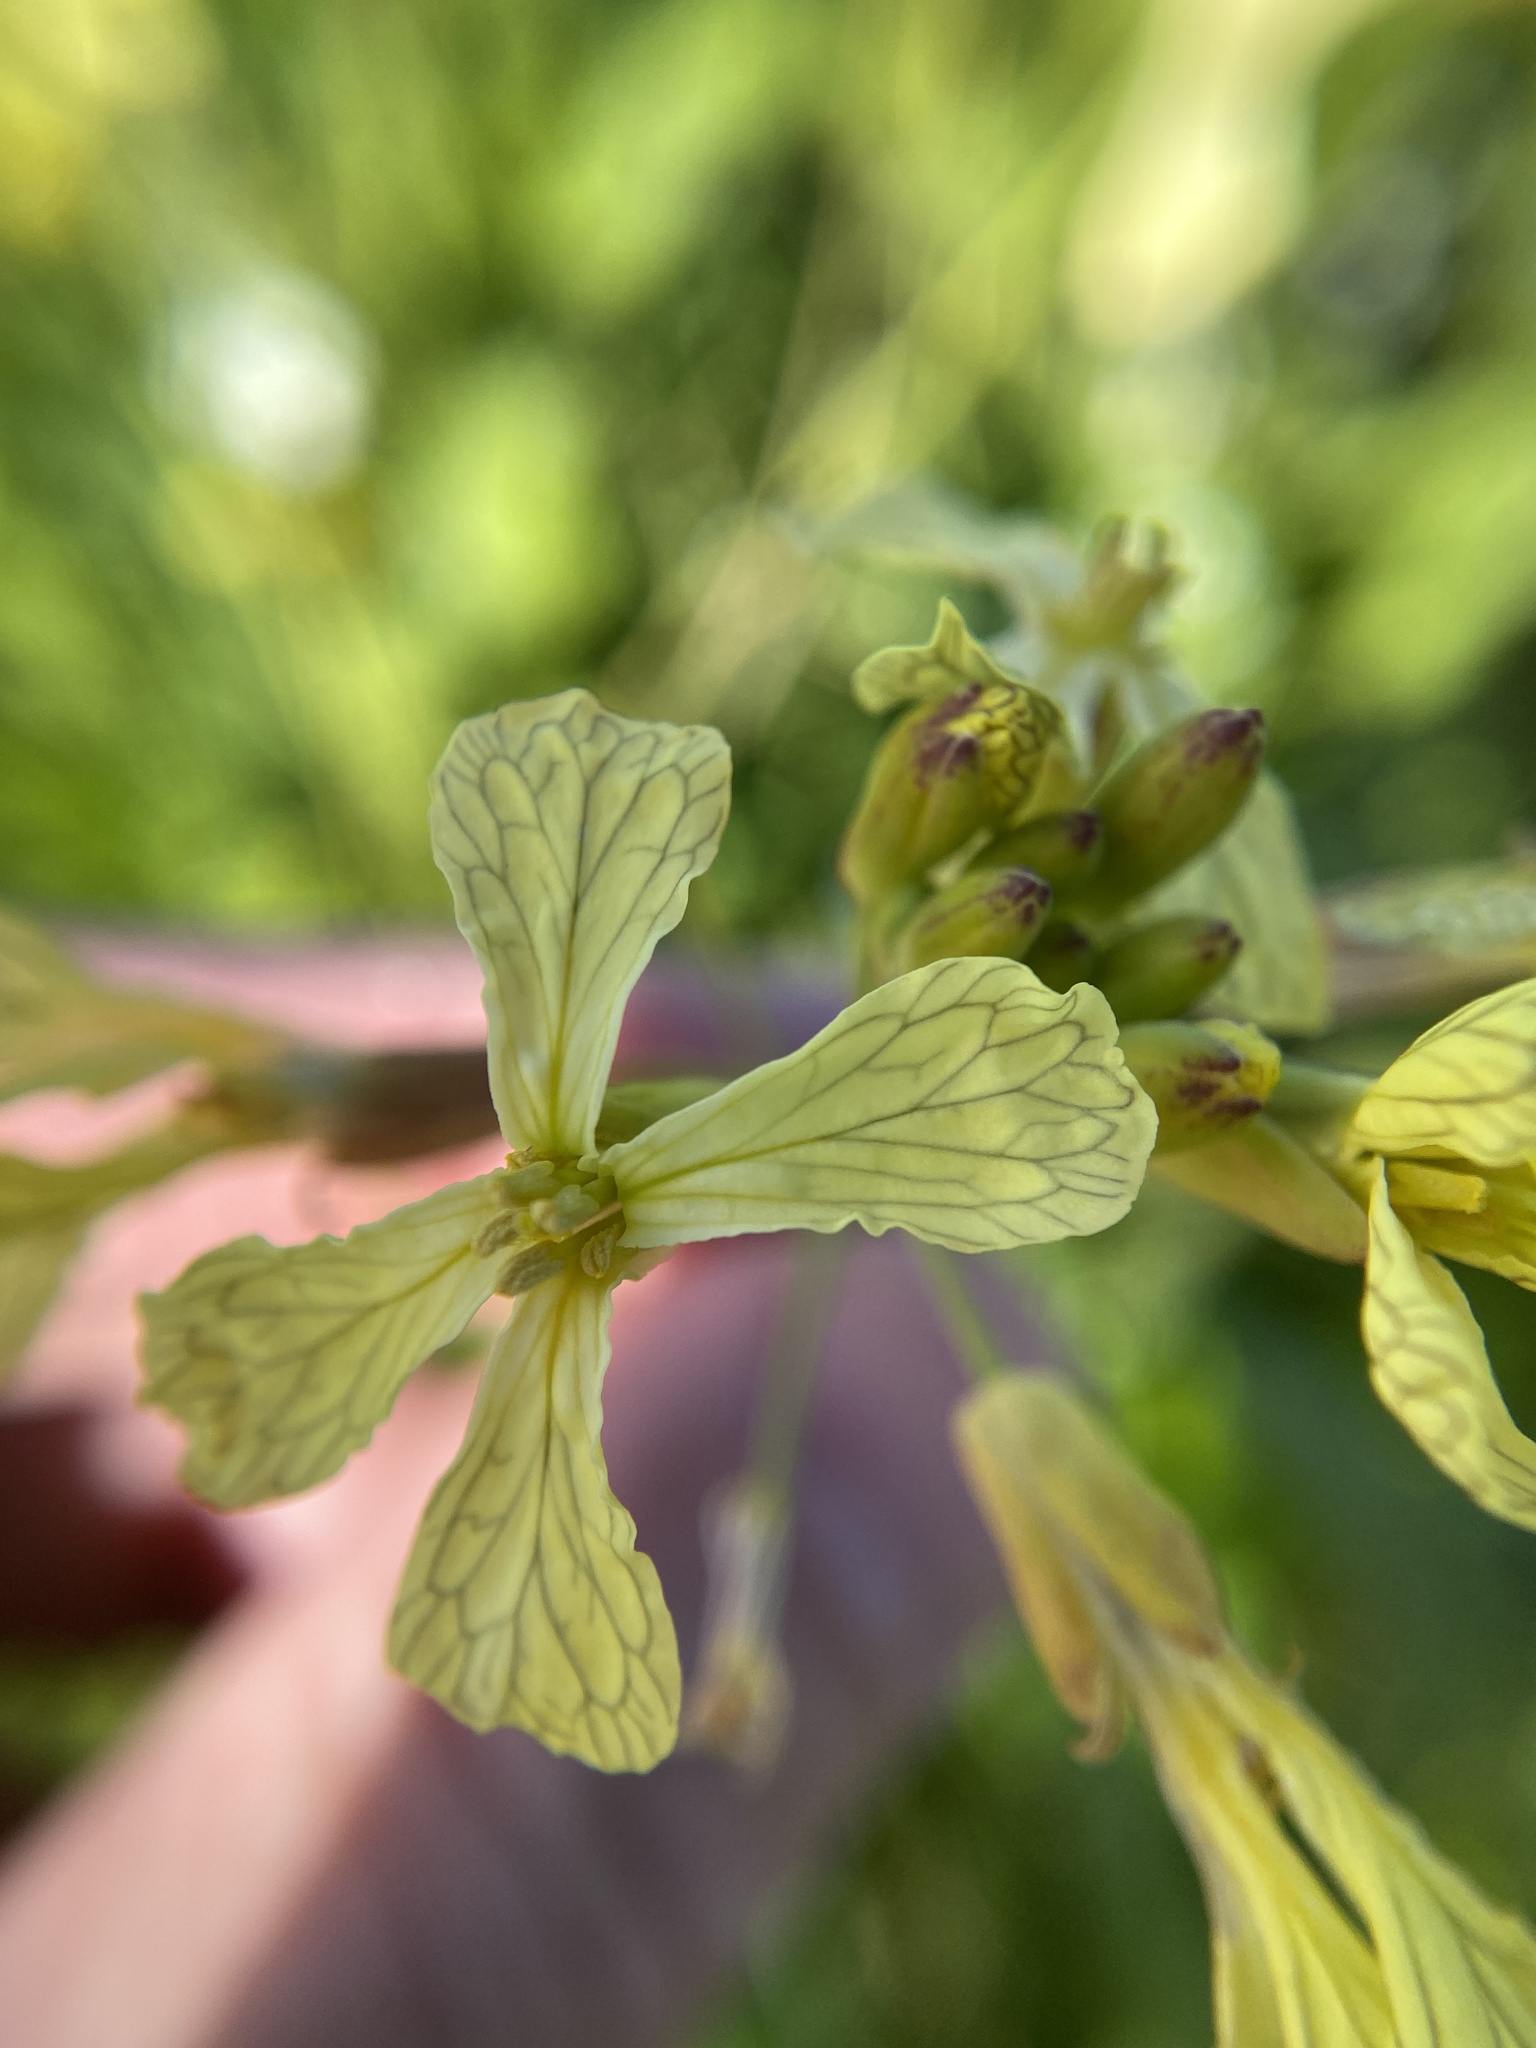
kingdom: Plantae
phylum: Tracheophyta
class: Magnoliopsida
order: Brassicales
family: Brassicaceae
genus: Raphanus
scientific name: Raphanus raphanistrum
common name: Wild radish
